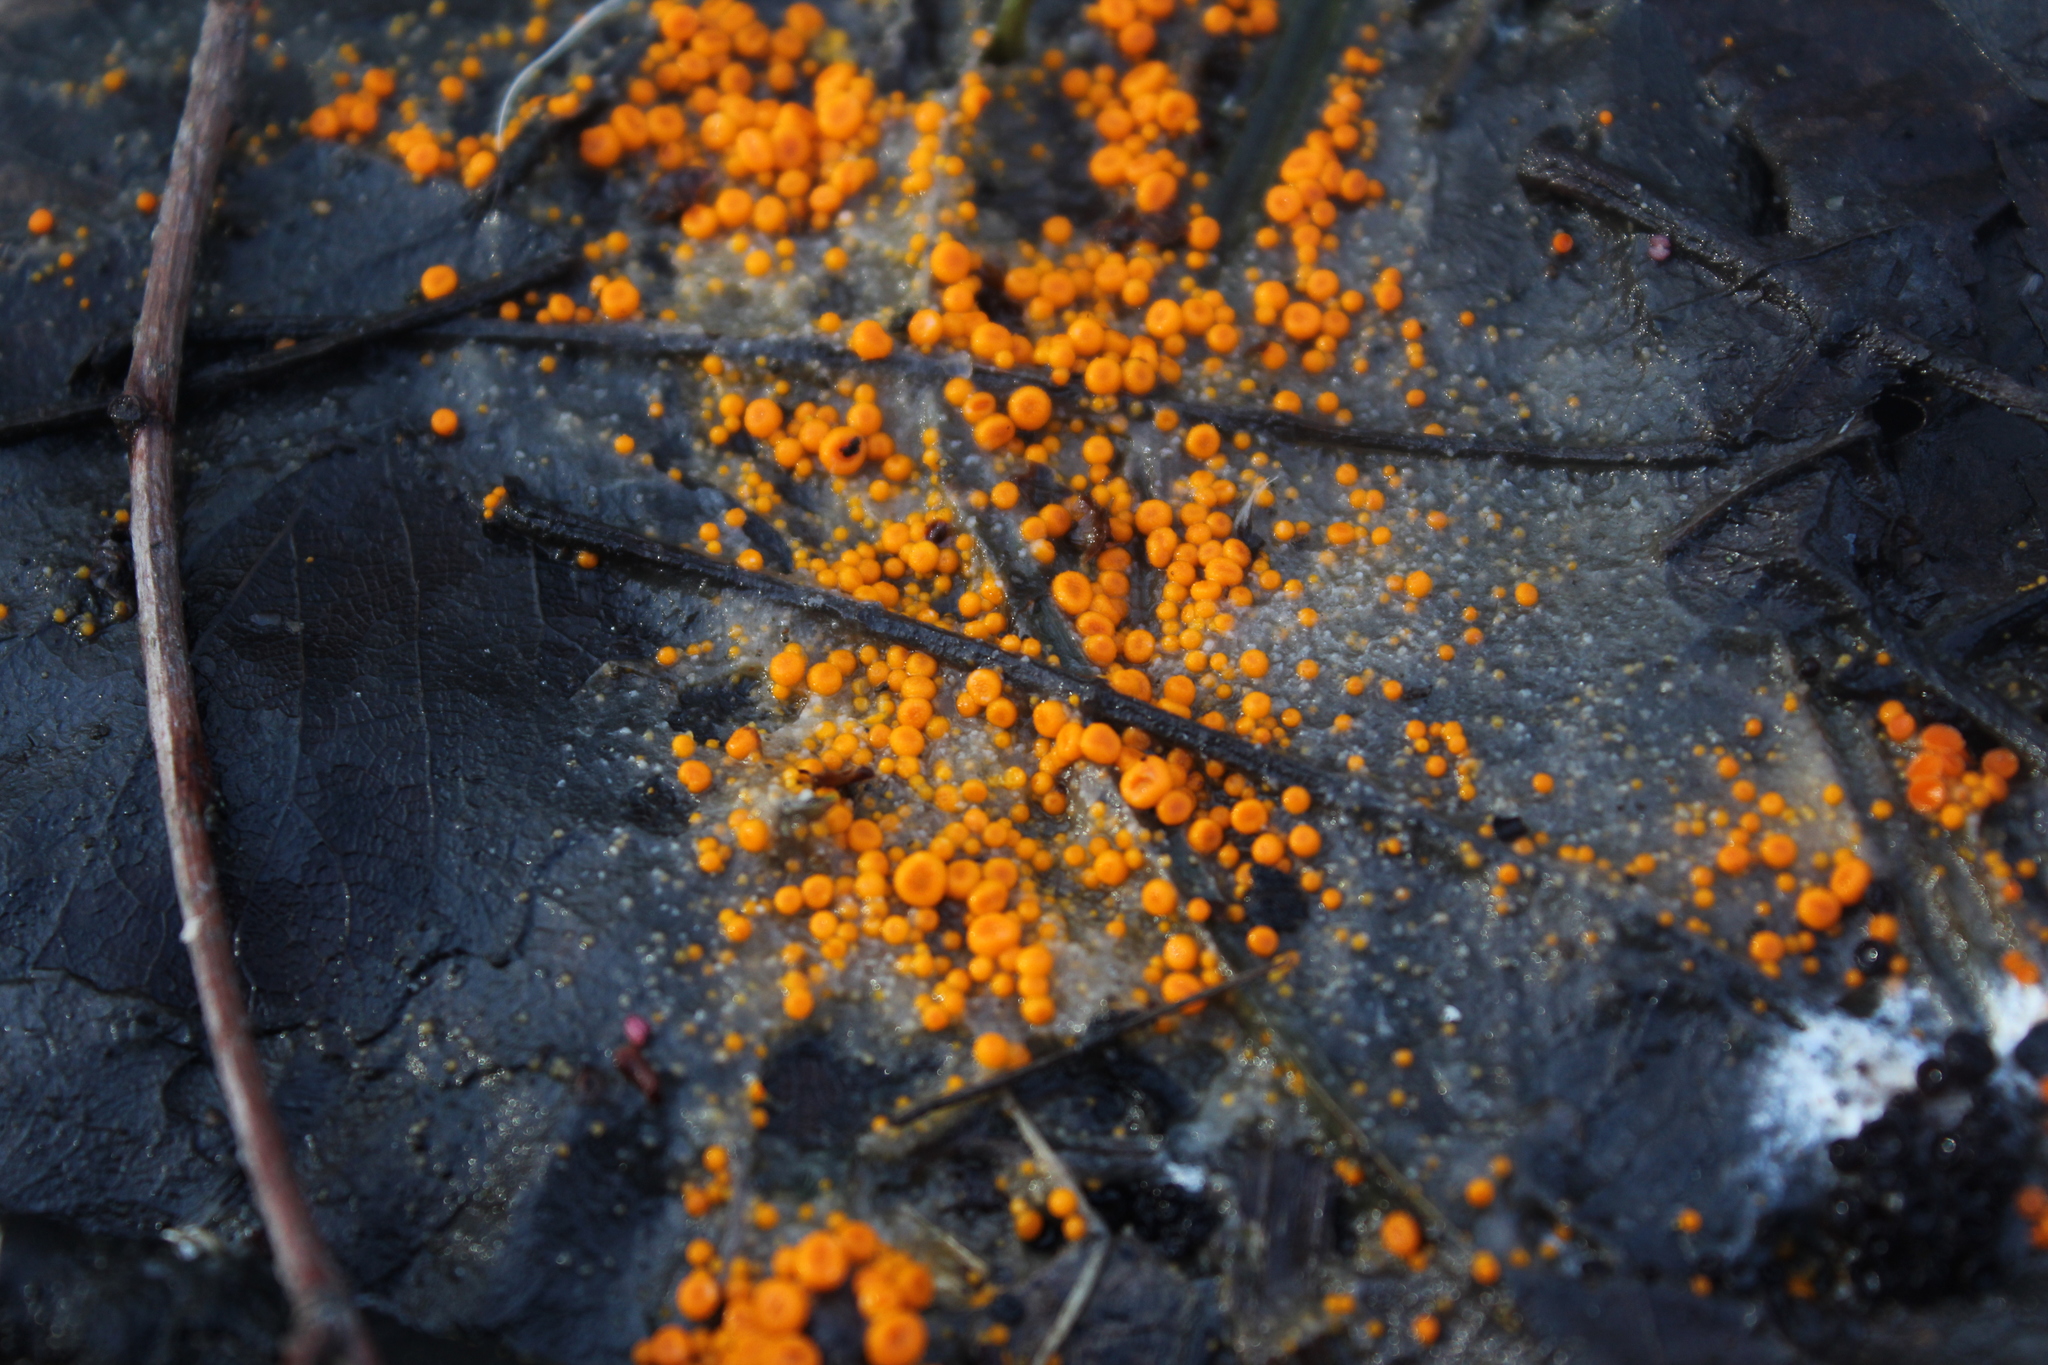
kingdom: Fungi
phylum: Ascomycota
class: Pezizomycetes
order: Pezizales
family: Pyronemataceae
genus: Byssonectria
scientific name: Byssonectria terrestris
